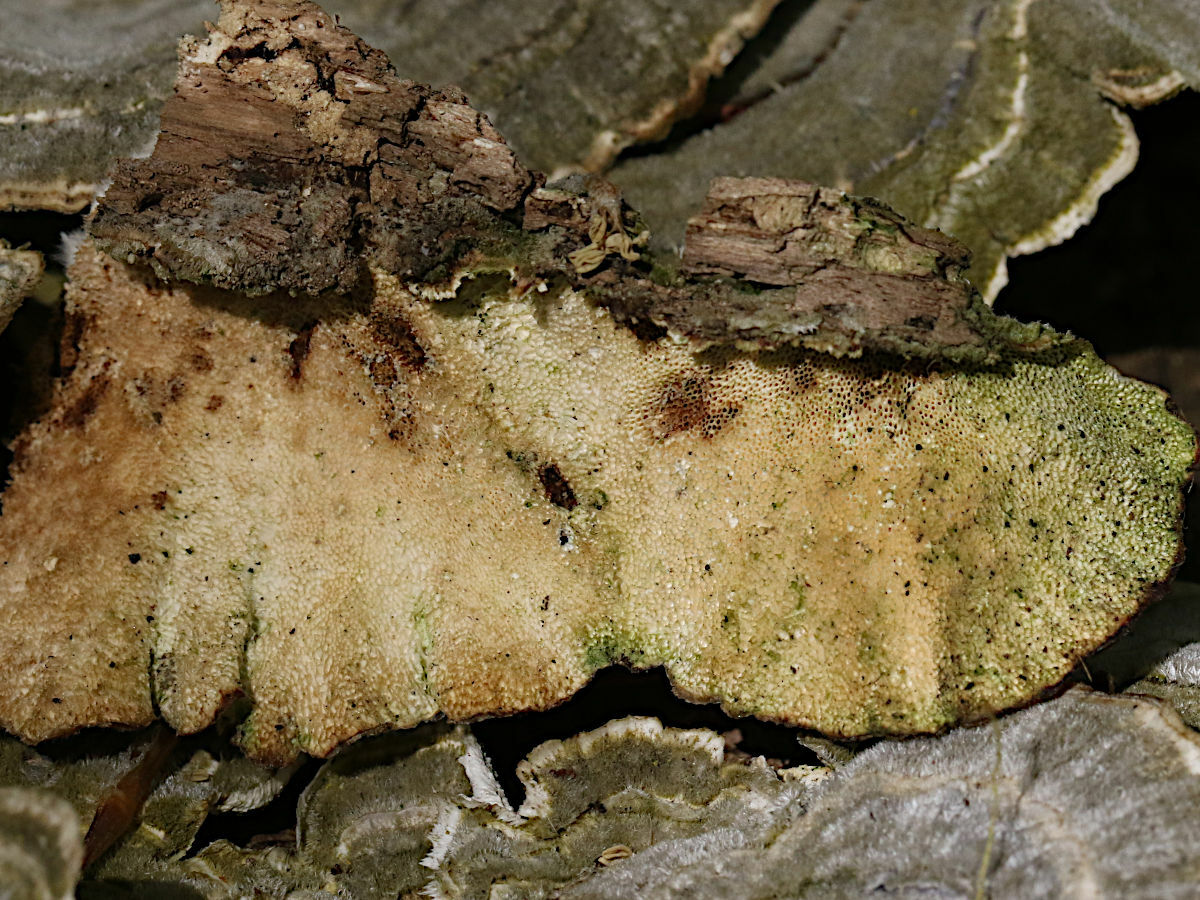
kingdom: Fungi
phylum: Basidiomycota
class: Agaricomycetes
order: Polyporales
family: Polyporaceae
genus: Trametes
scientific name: Trametes versicolor
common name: Turkeytail
